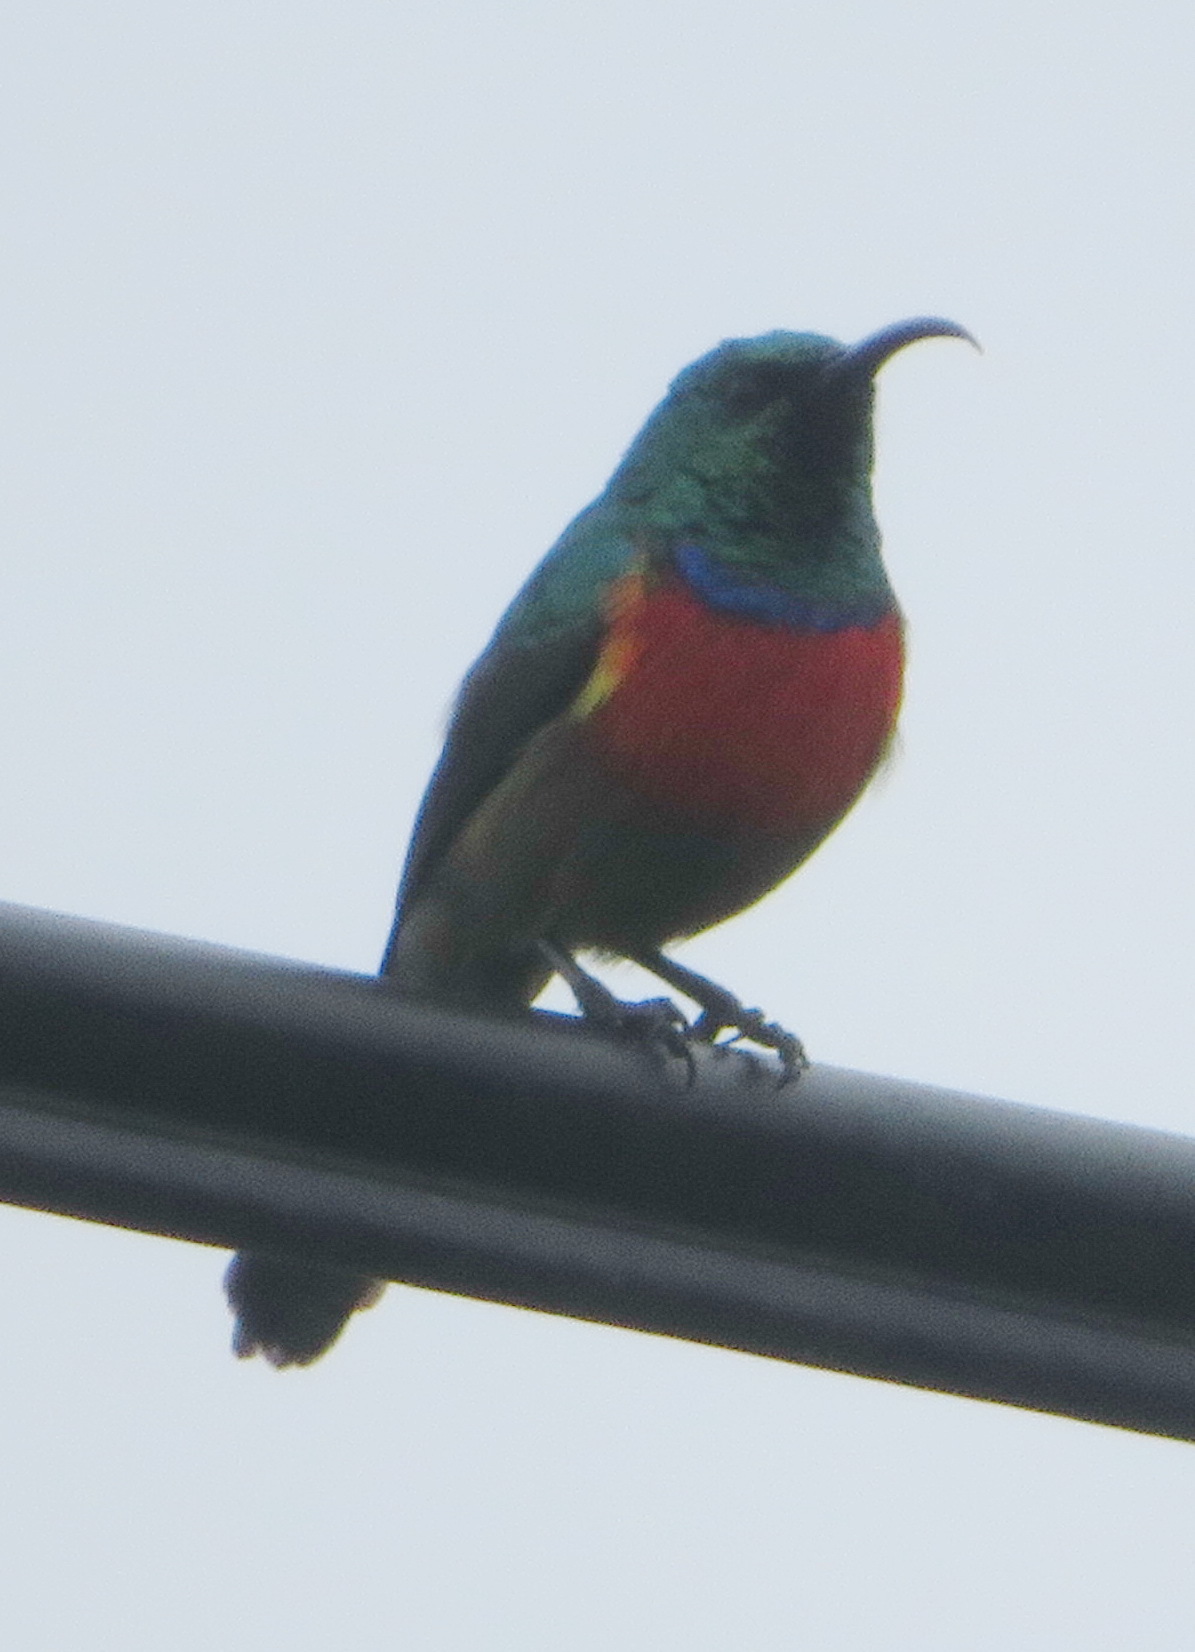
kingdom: Animalia
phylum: Chordata
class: Aves
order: Passeriformes
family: Nectariniidae
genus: Cinnyris
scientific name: Cinnyris afer
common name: Greater double-collared sunbird
